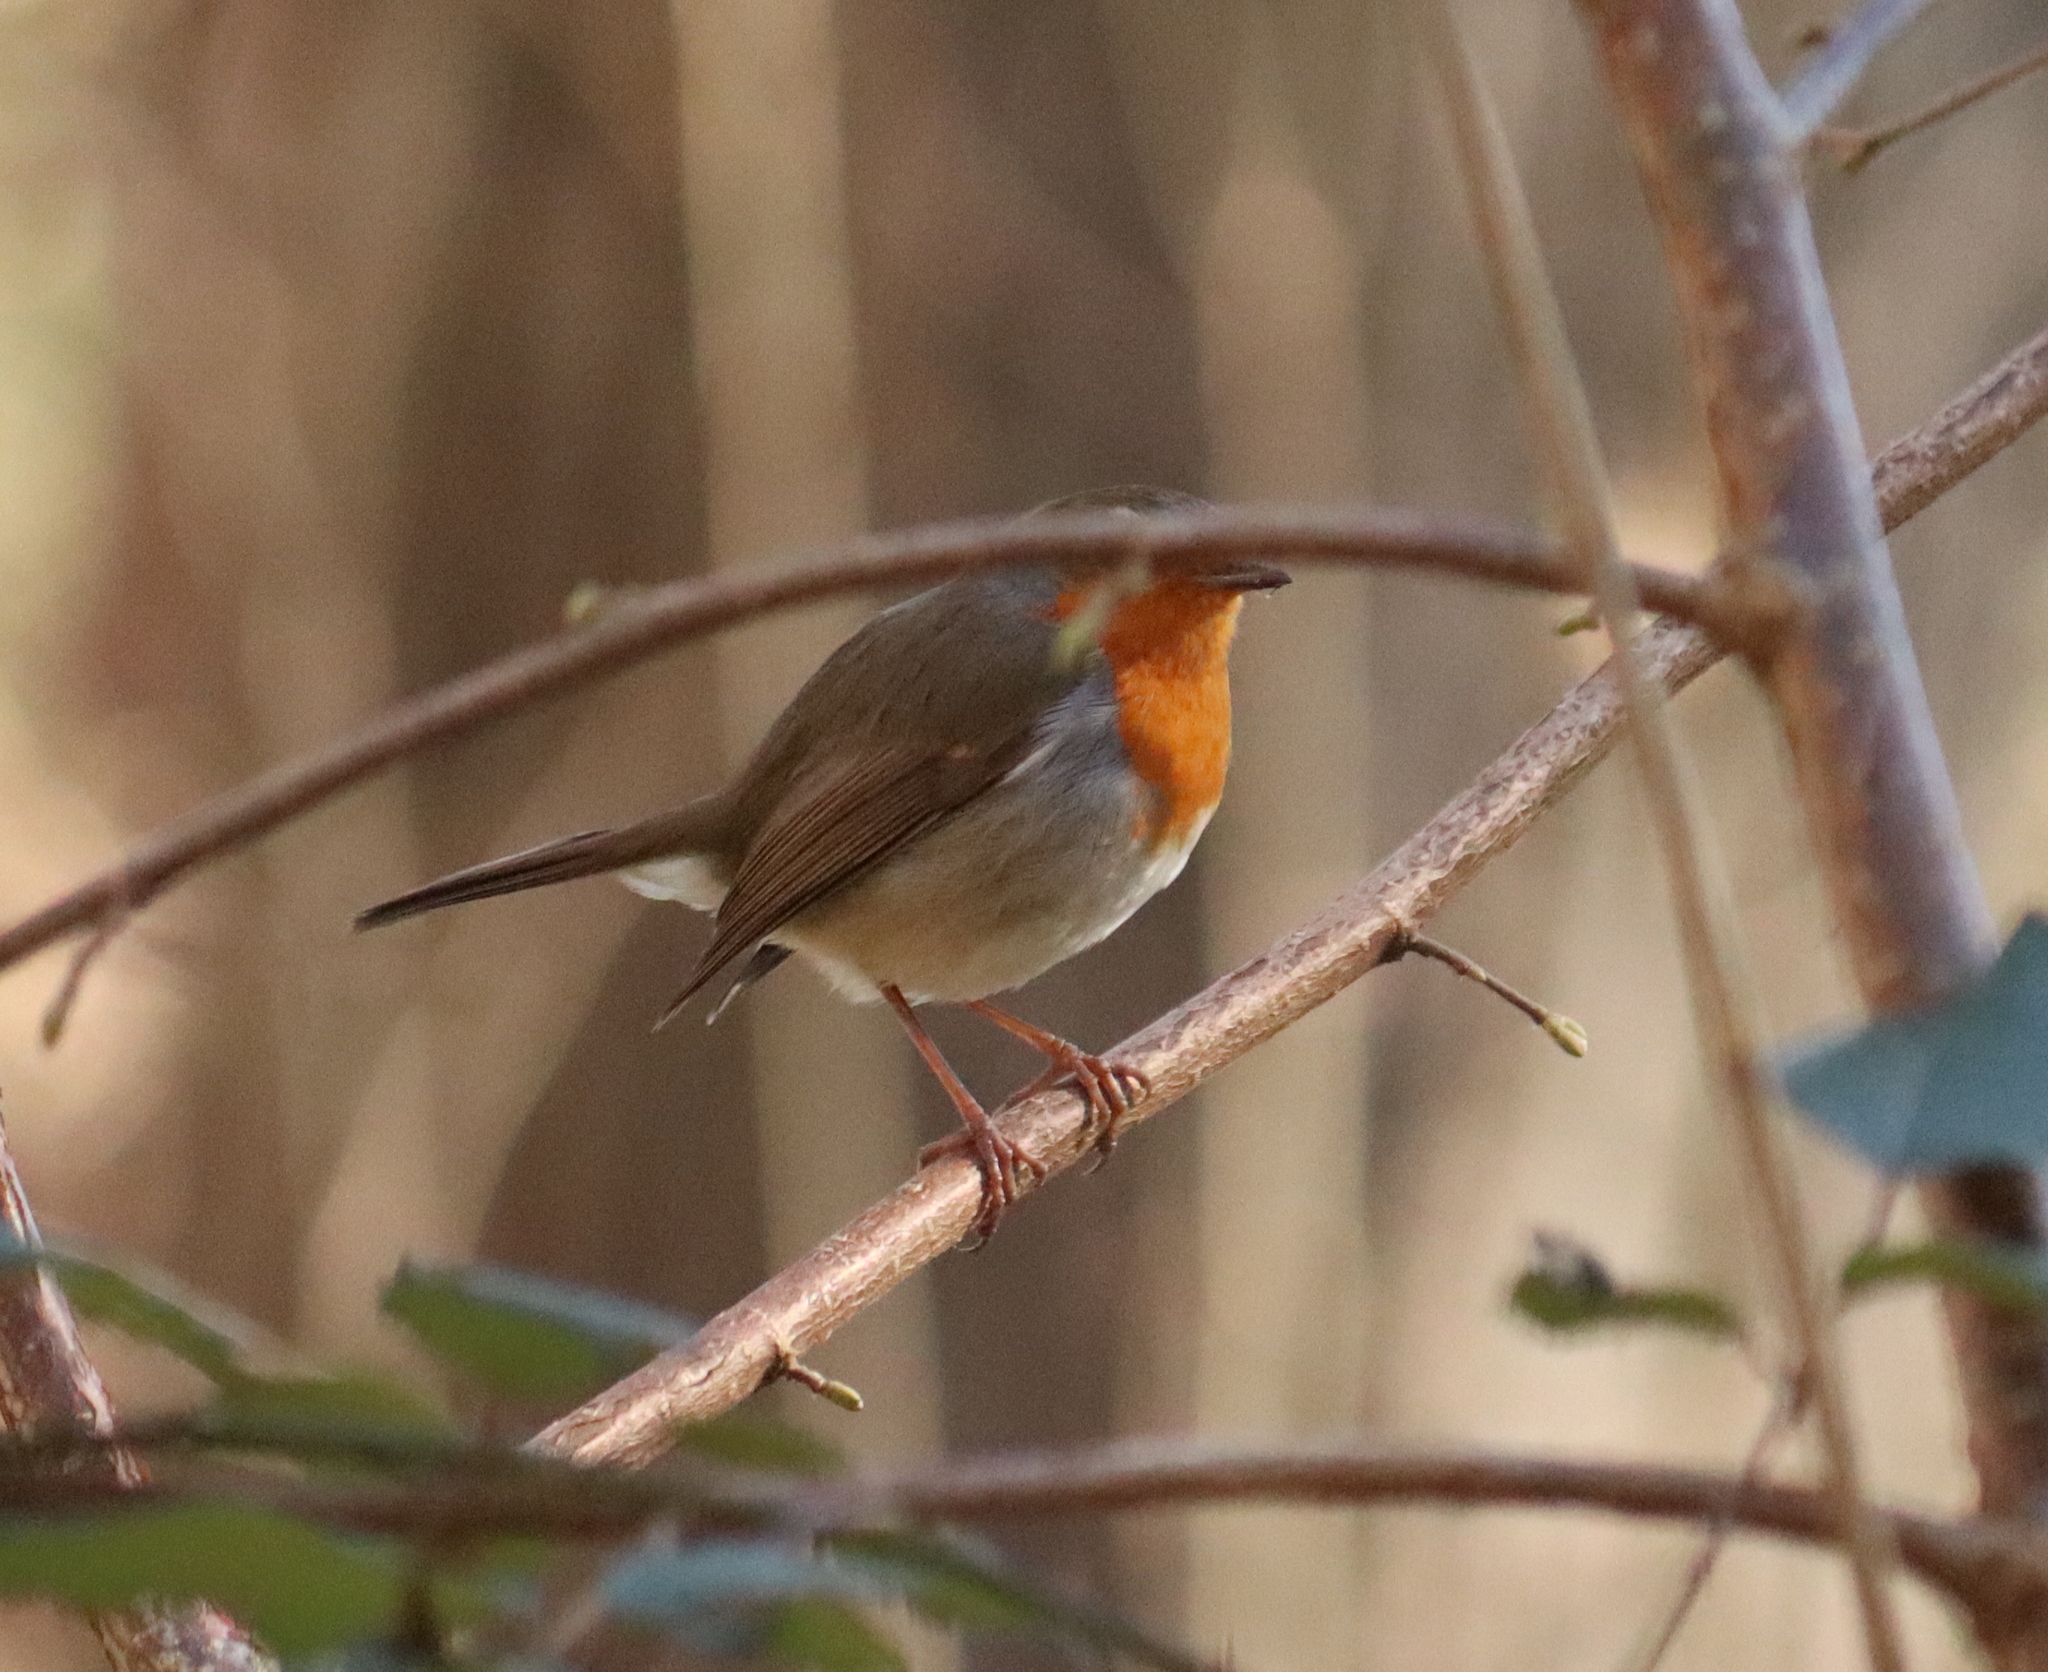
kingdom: Animalia
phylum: Chordata
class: Aves
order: Passeriformes
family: Muscicapidae
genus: Erithacus
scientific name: Erithacus rubecula
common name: European robin
